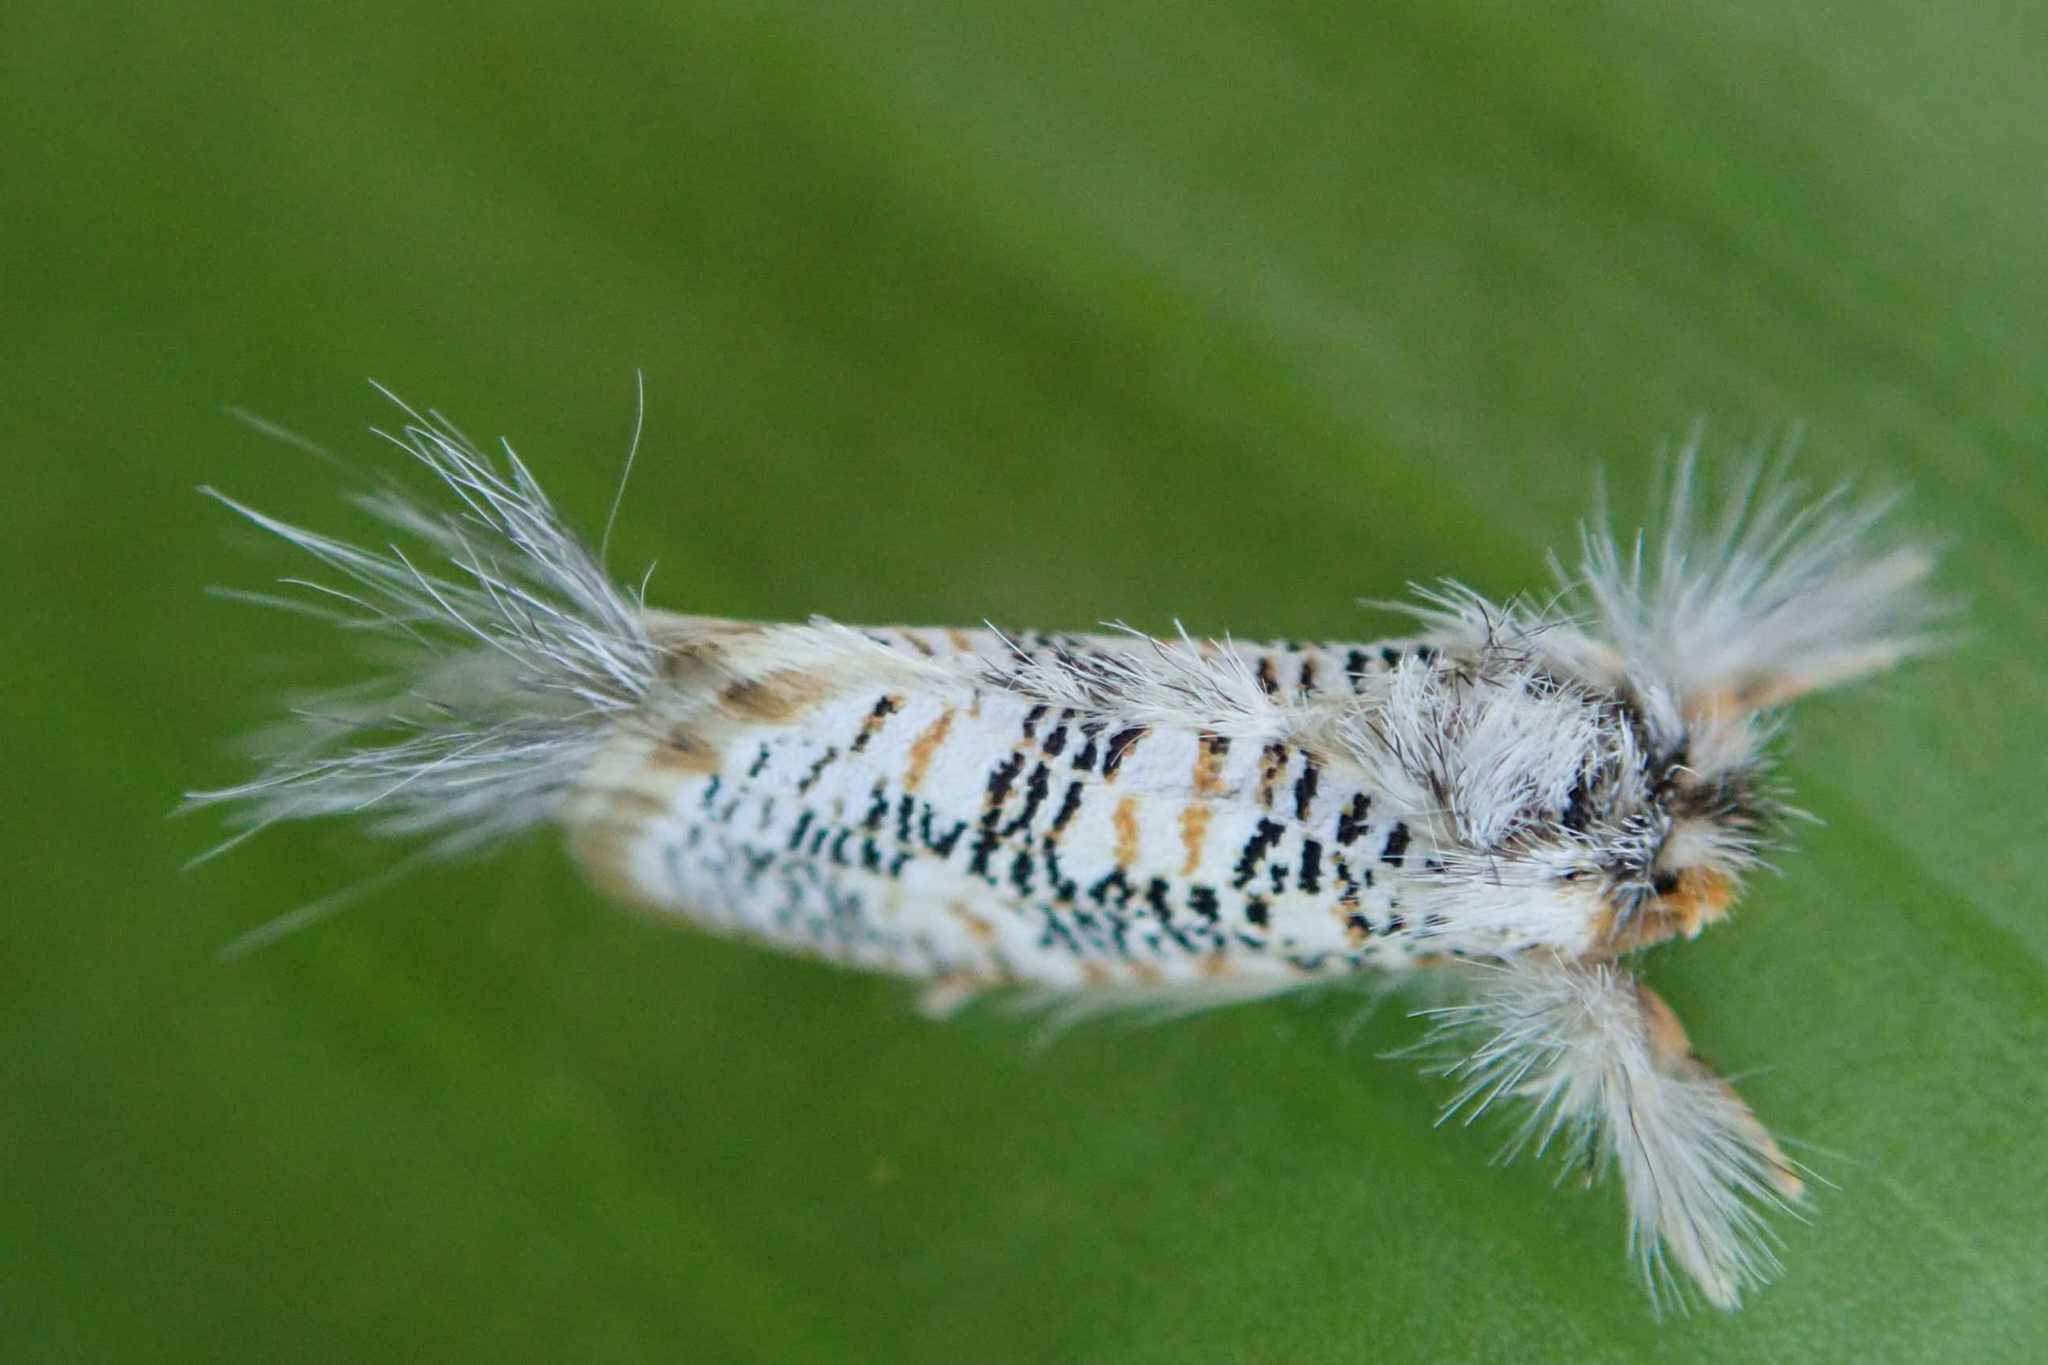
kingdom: Animalia
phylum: Arthropoda
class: Insecta
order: Lepidoptera
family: Metarbelidae
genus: Salagena
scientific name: Salagena tessellata
